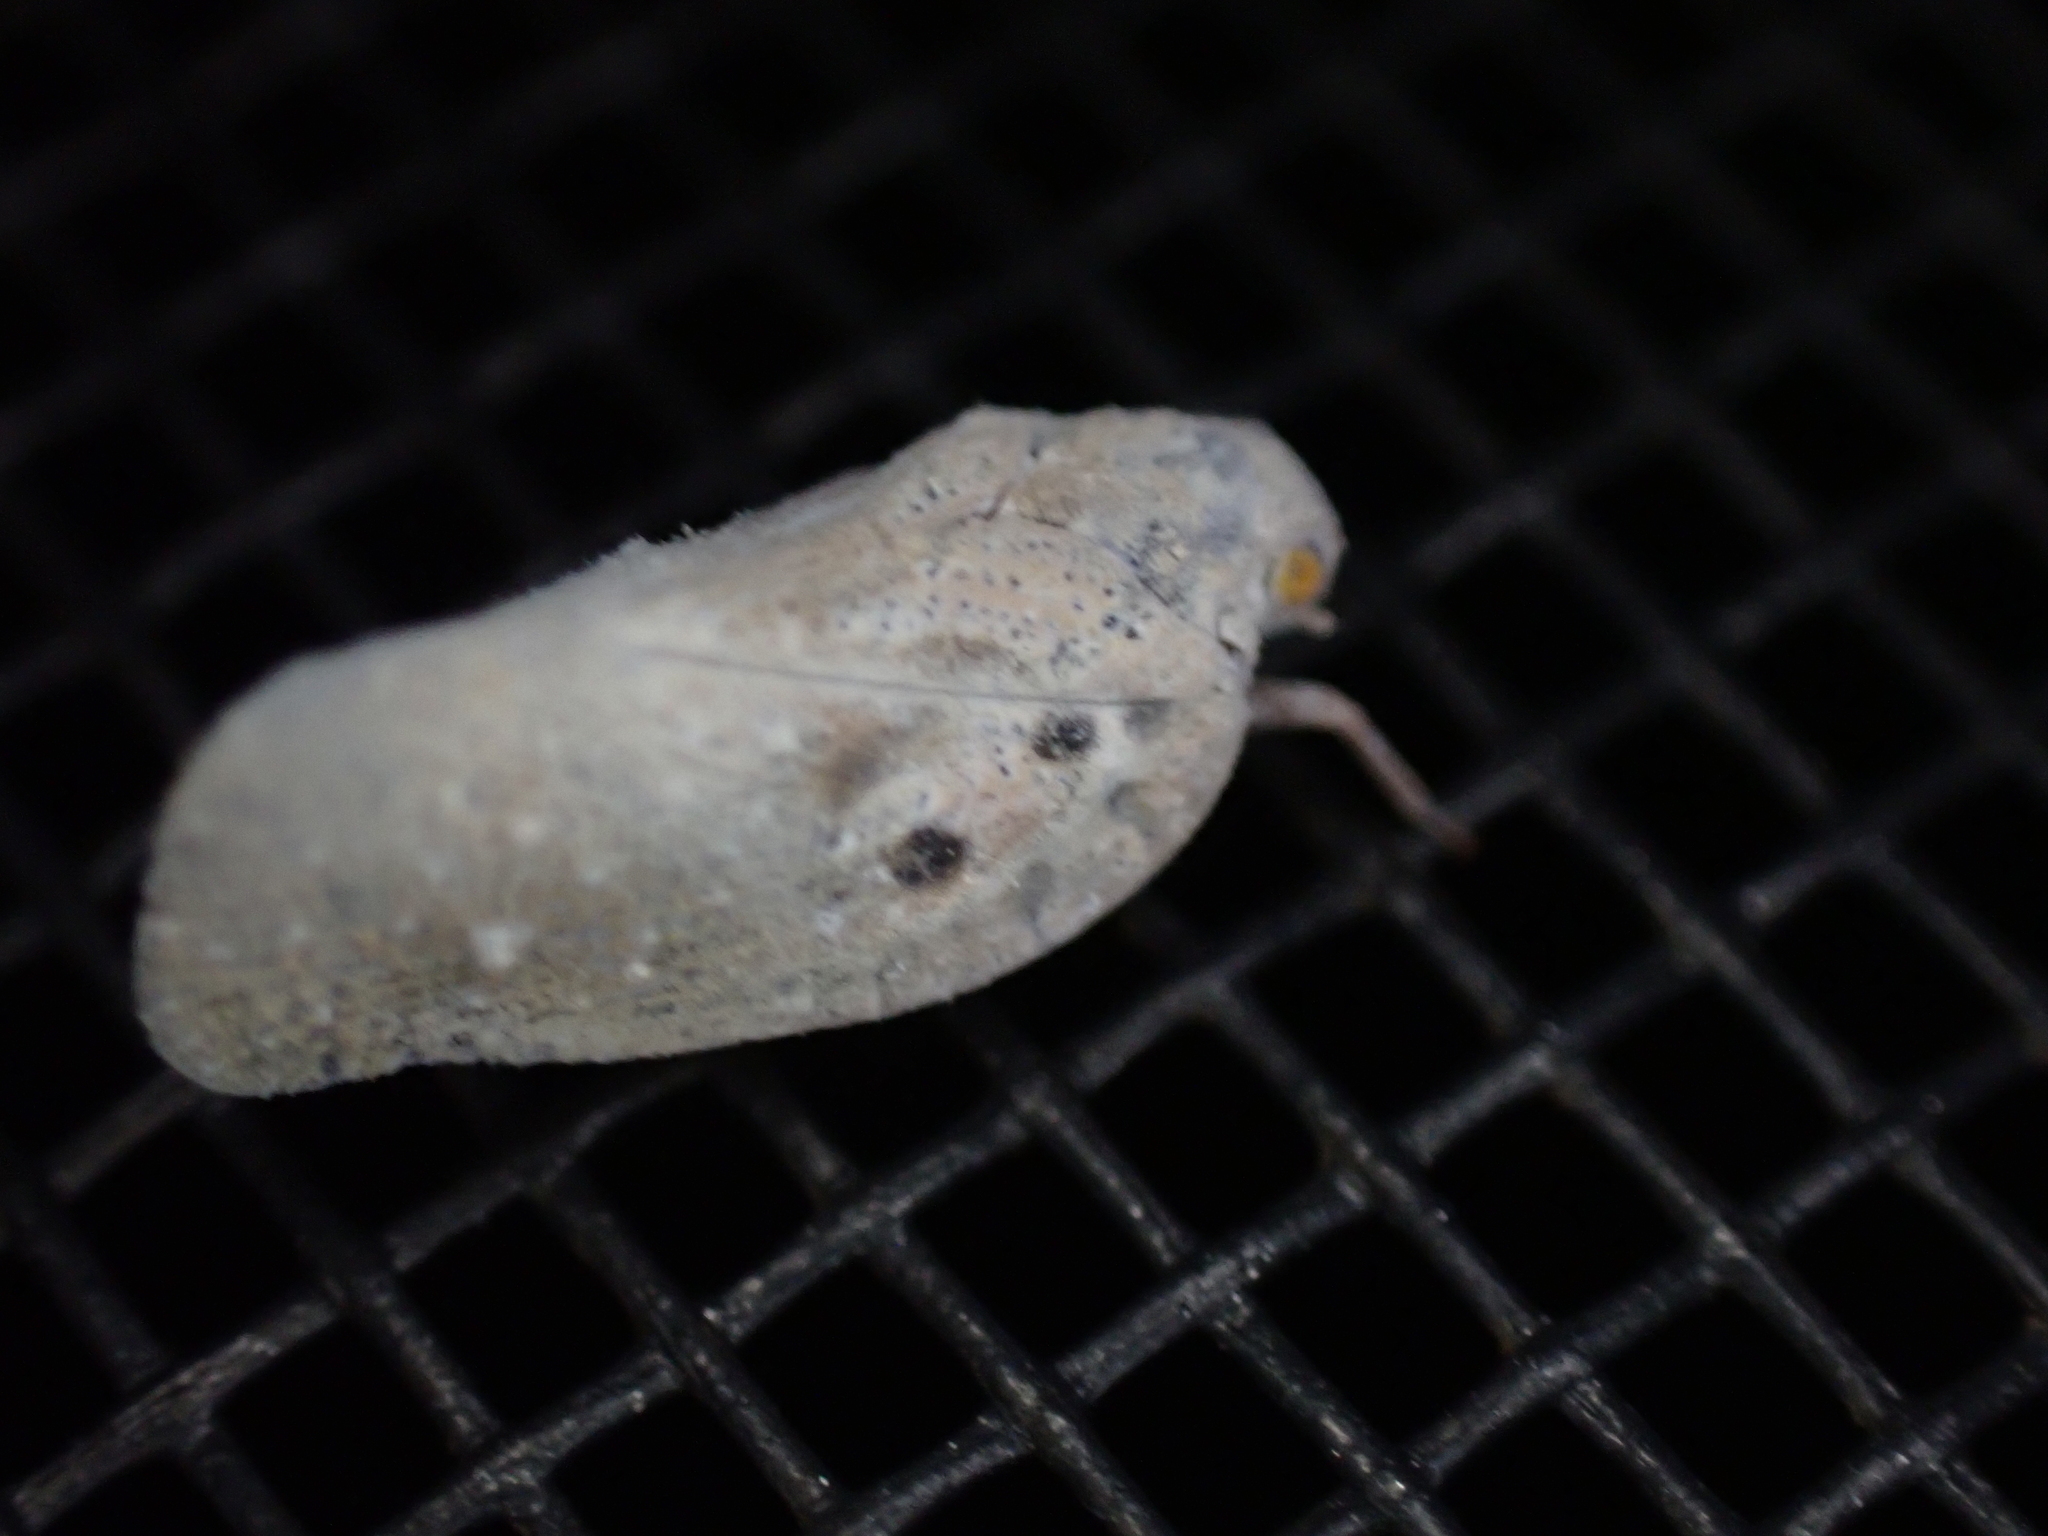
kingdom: Animalia
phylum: Arthropoda
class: Insecta
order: Hemiptera
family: Flatidae
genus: Metcalfa
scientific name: Metcalfa pruinosa
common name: Citrus flatid planthopper
